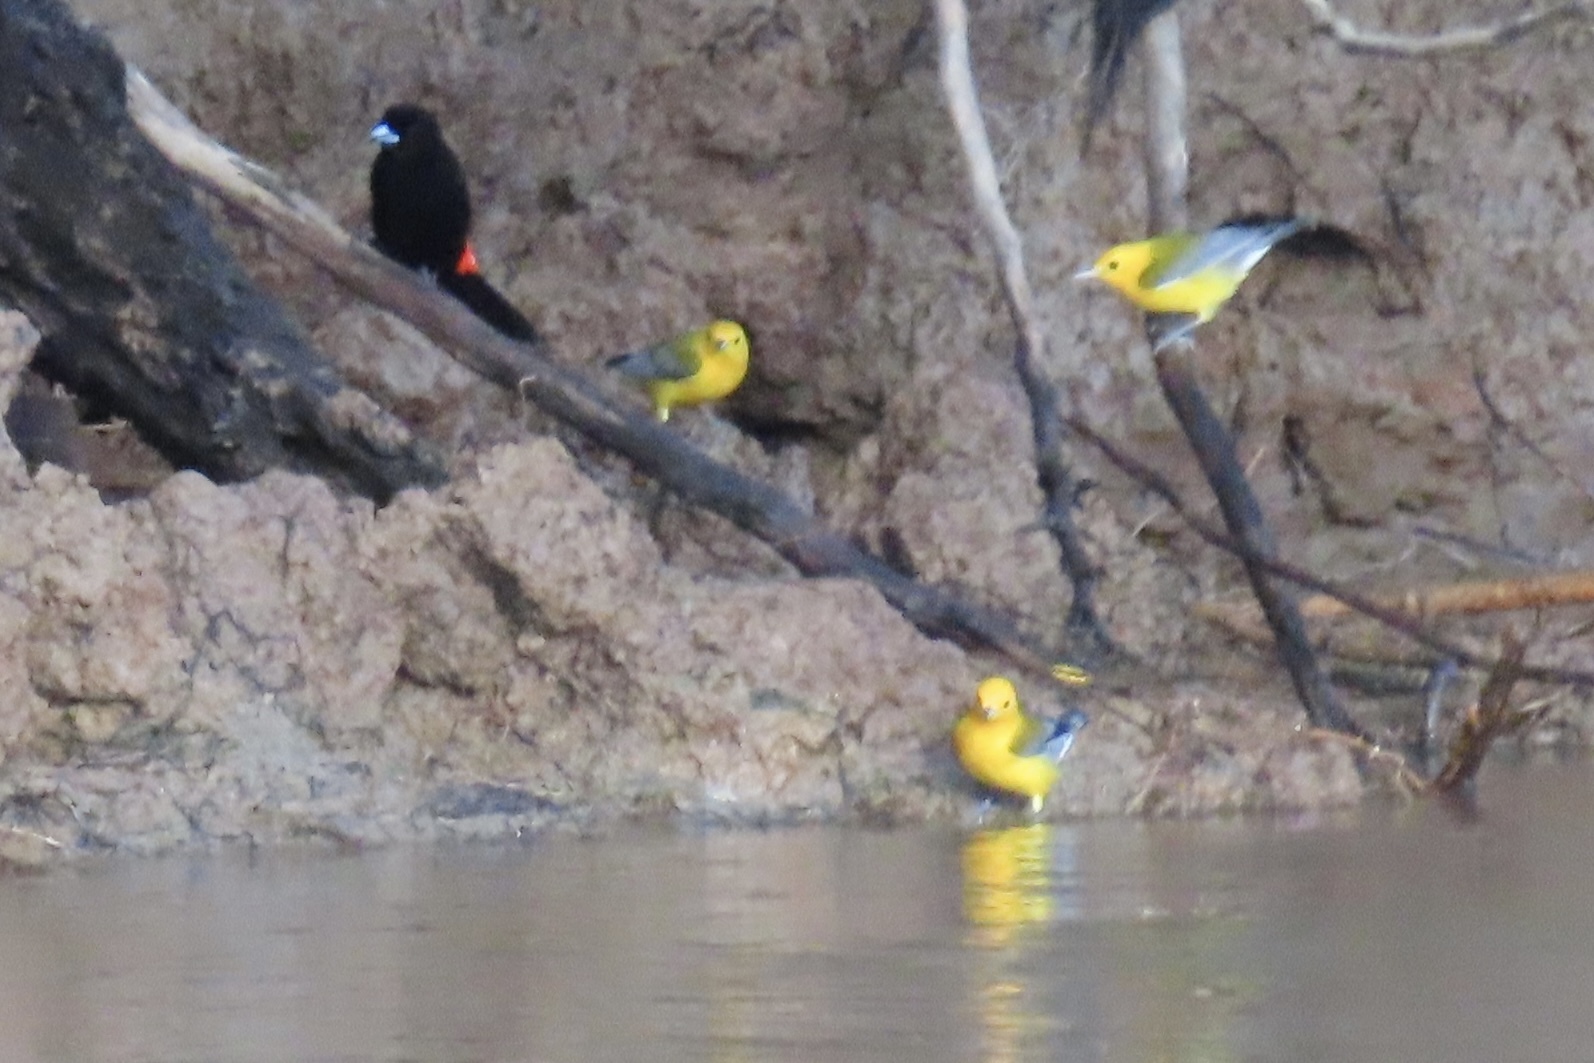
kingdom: Animalia
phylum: Chordata
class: Aves
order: Passeriformes
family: Thraupidae
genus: Ramphocelus
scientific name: Ramphocelus passerinii
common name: Passerini's tanager
